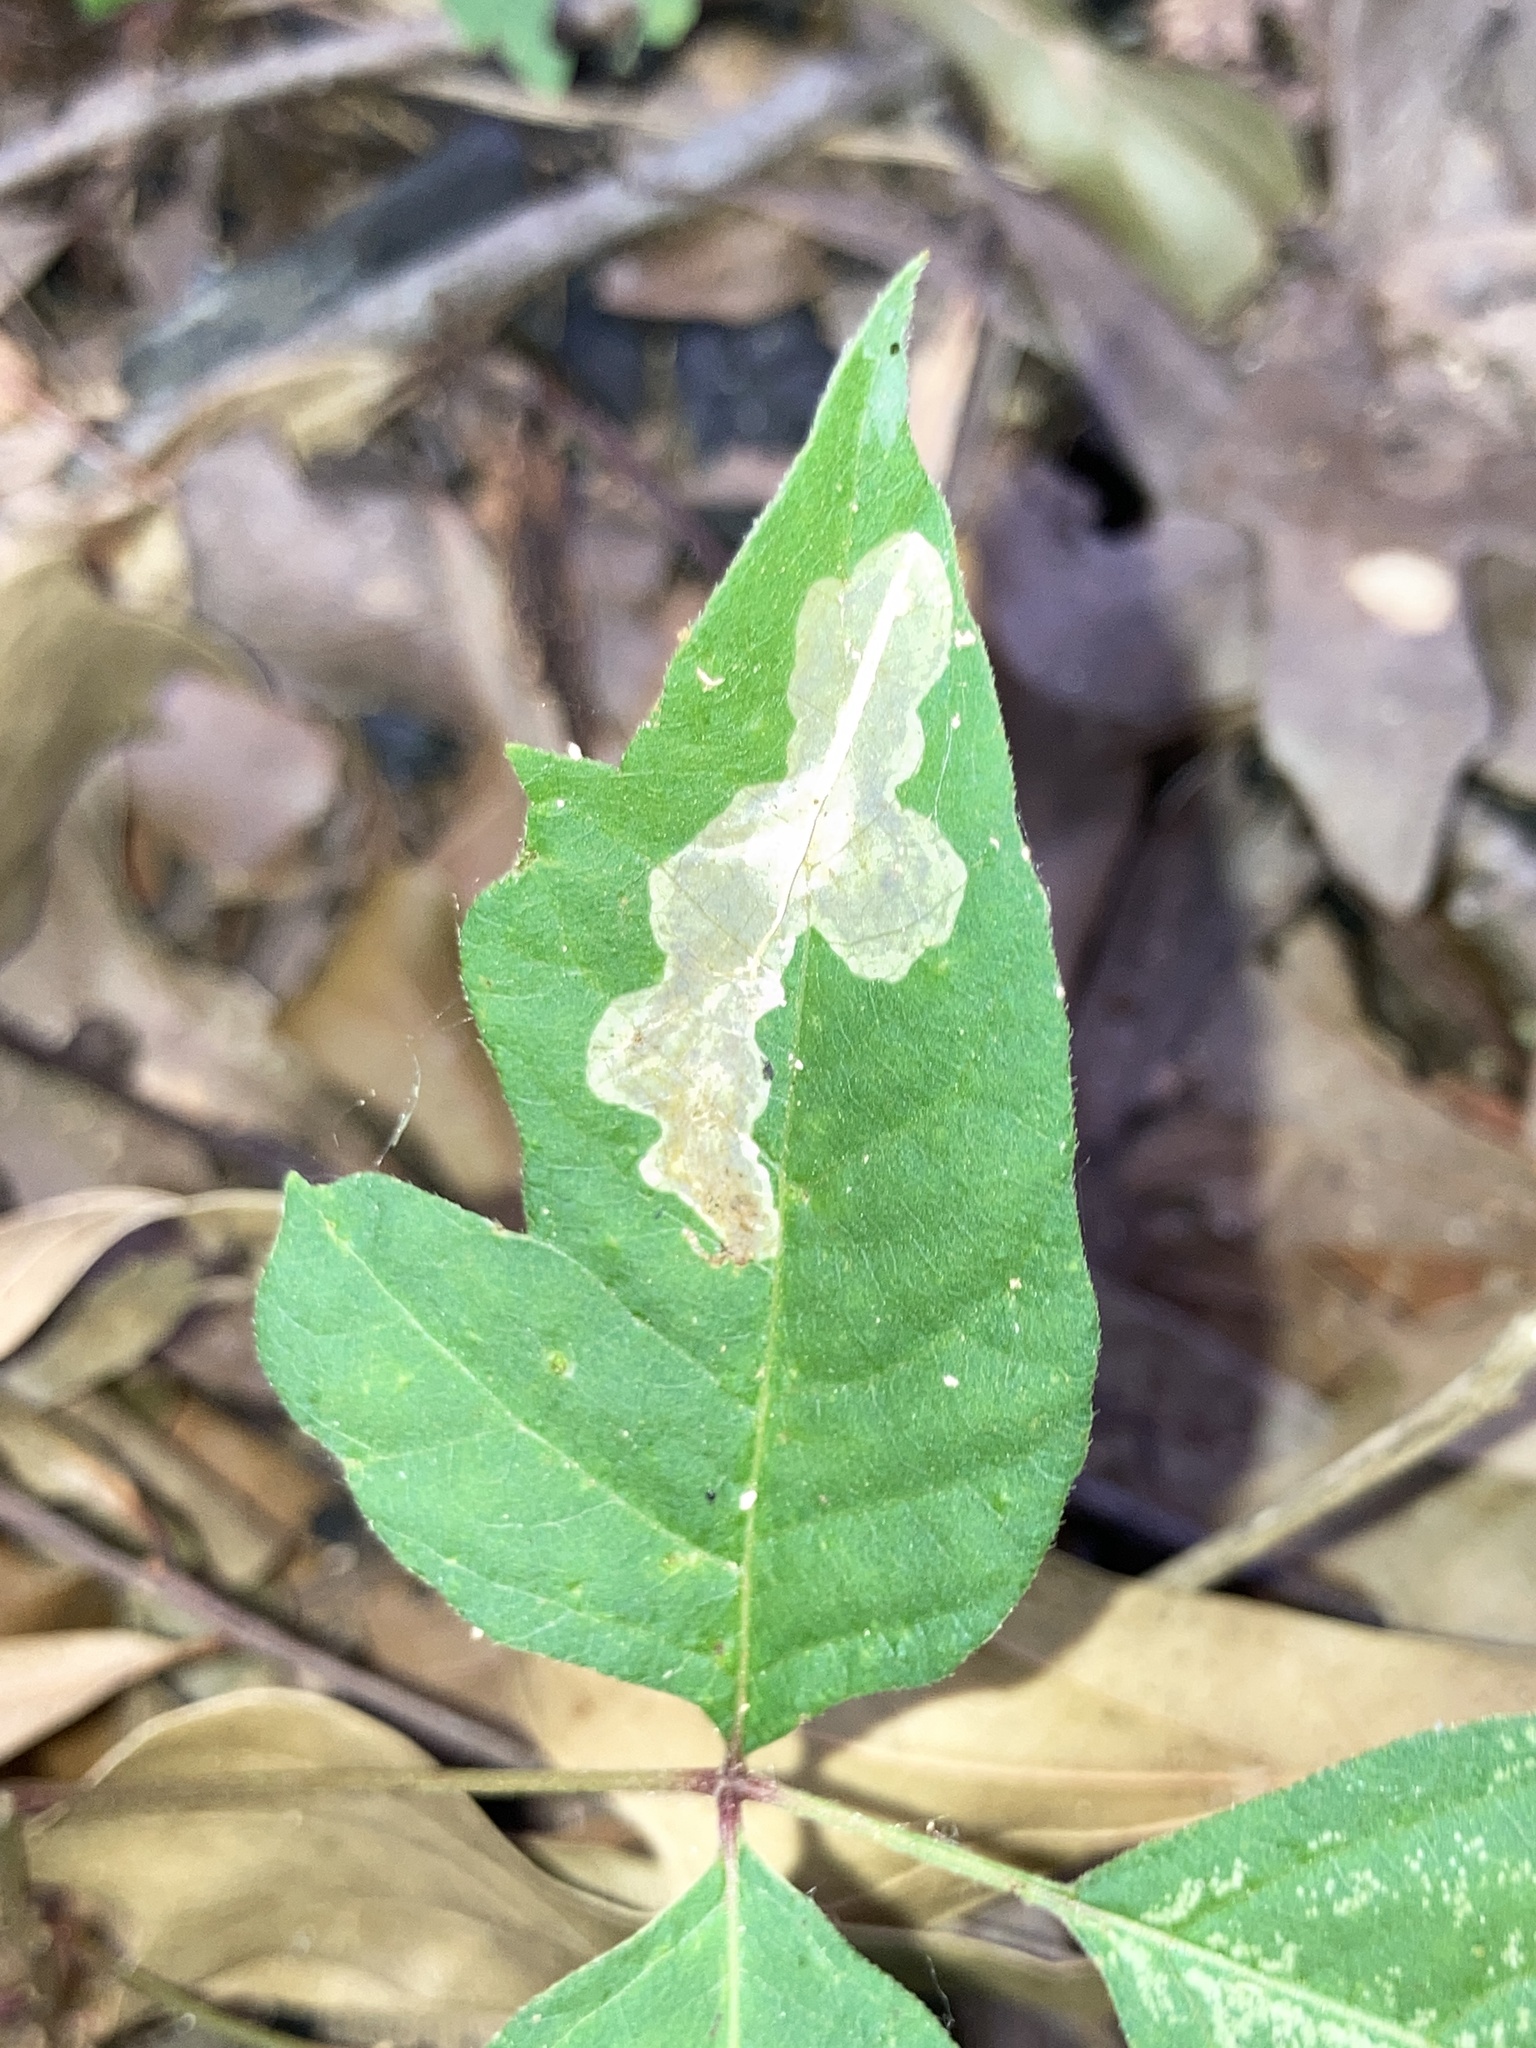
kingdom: Animalia
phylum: Arthropoda
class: Insecta
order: Lepidoptera
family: Gracillariidae
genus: Cameraria
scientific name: Cameraria guttifinitella
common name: Poison ivy leaf-miner moth
